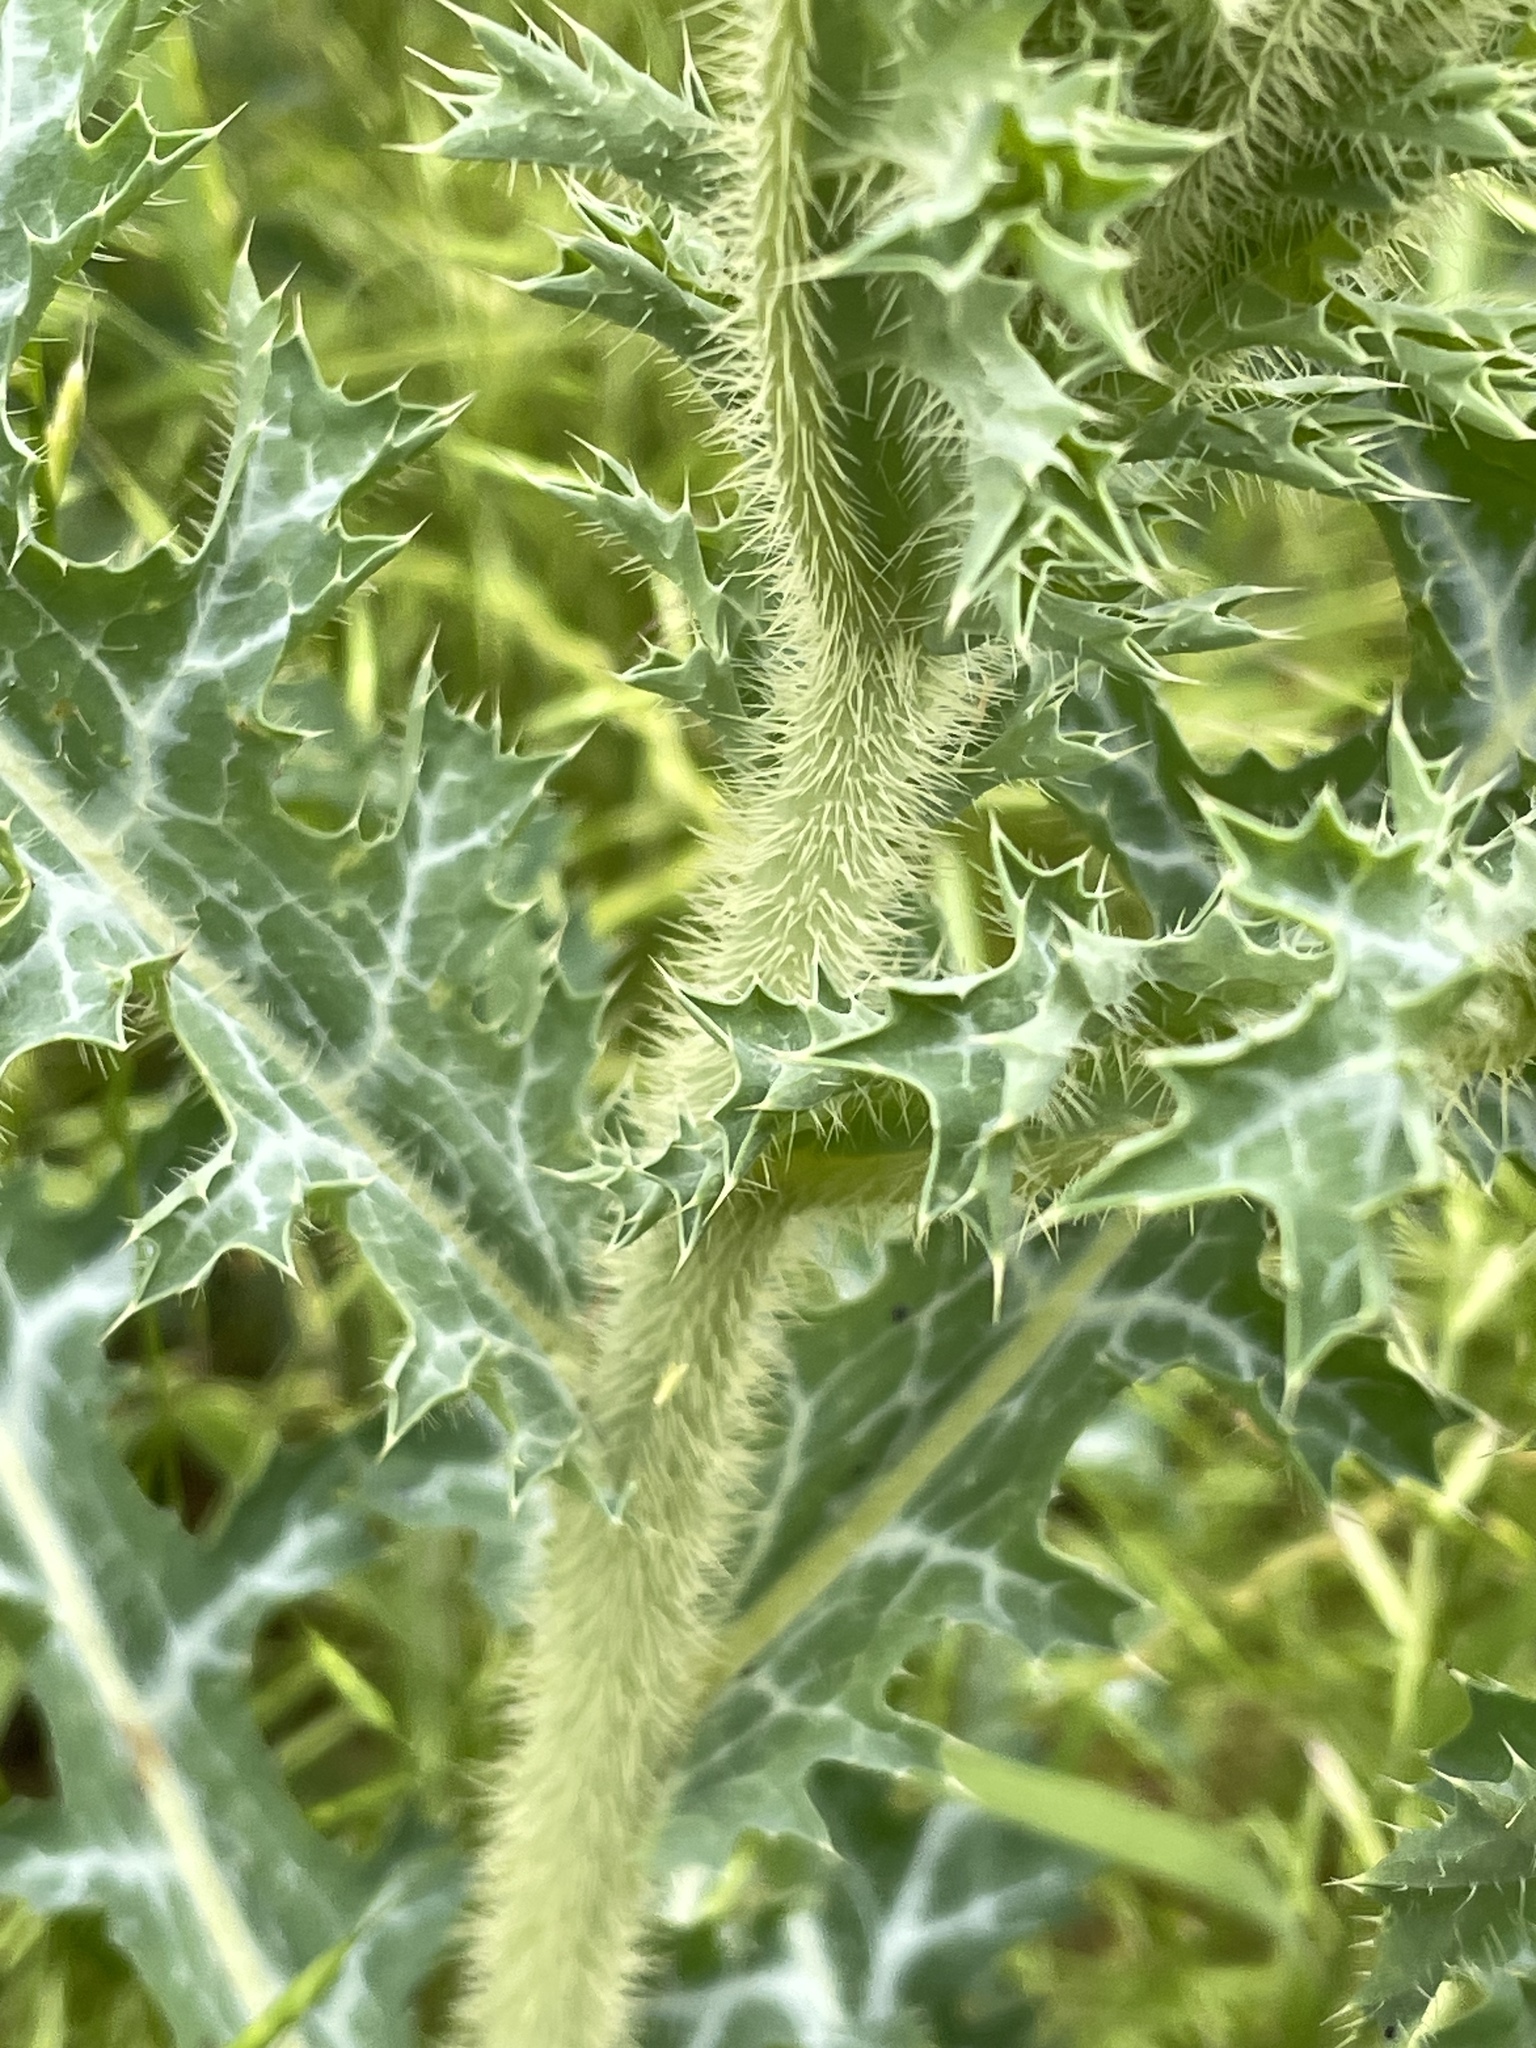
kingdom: Plantae
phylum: Tracheophyta
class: Magnoliopsida
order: Ranunculales
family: Papaveraceae
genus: Argemone
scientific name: Argemone aurantiaca
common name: Texas prickly-poppy
